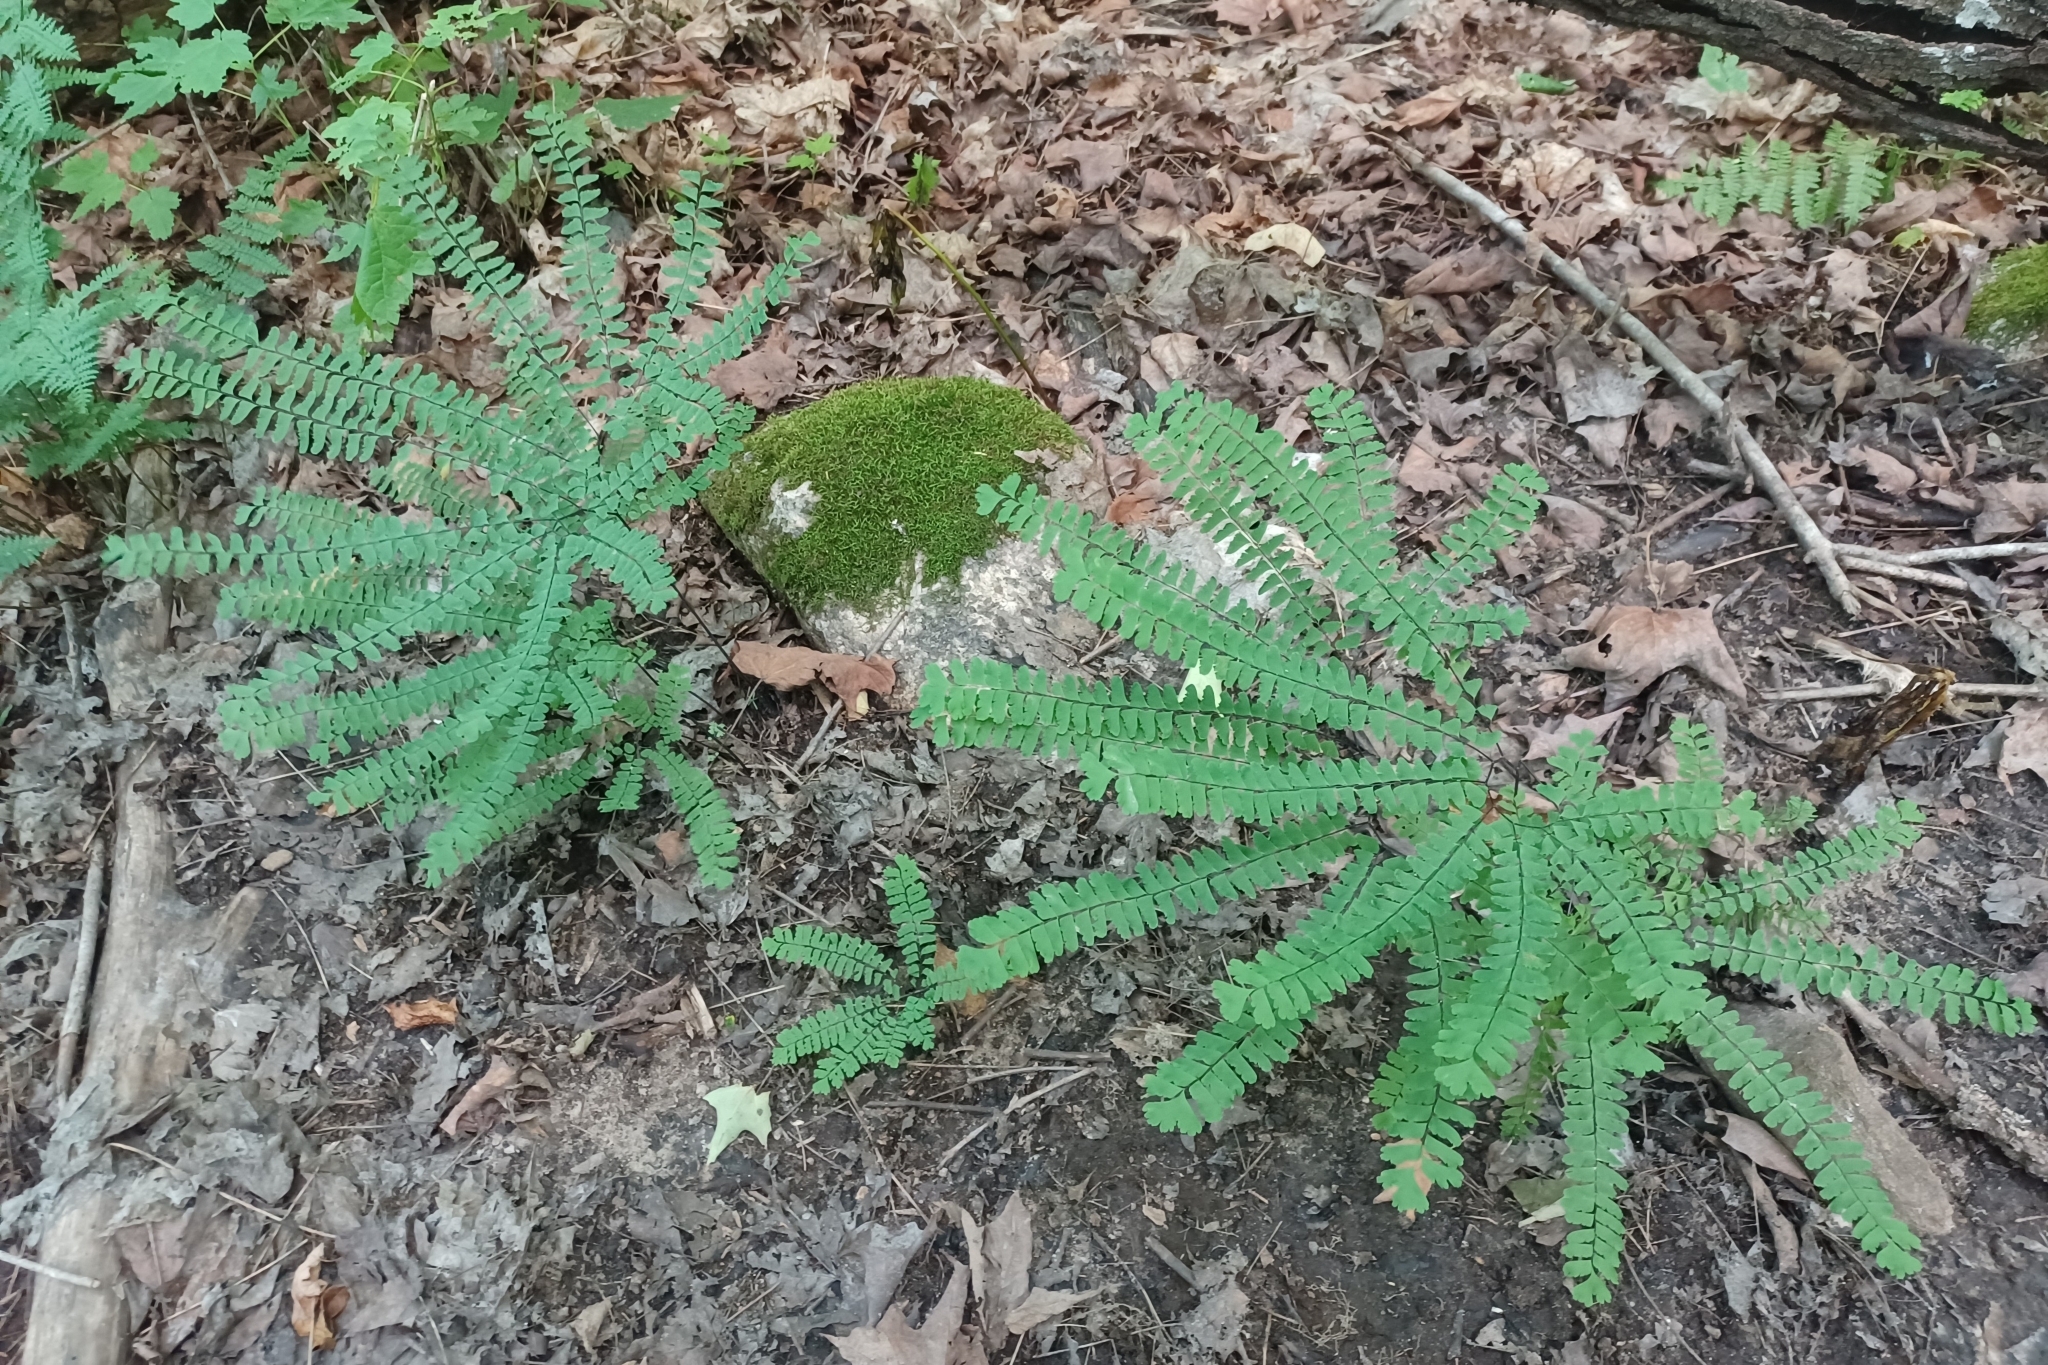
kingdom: Plantae
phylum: Tracheophyta
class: Polypodiopsida
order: Polypodiales
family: Pteridaceae
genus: Adiantum
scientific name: Adiantum pedatum
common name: Five-finger fern
